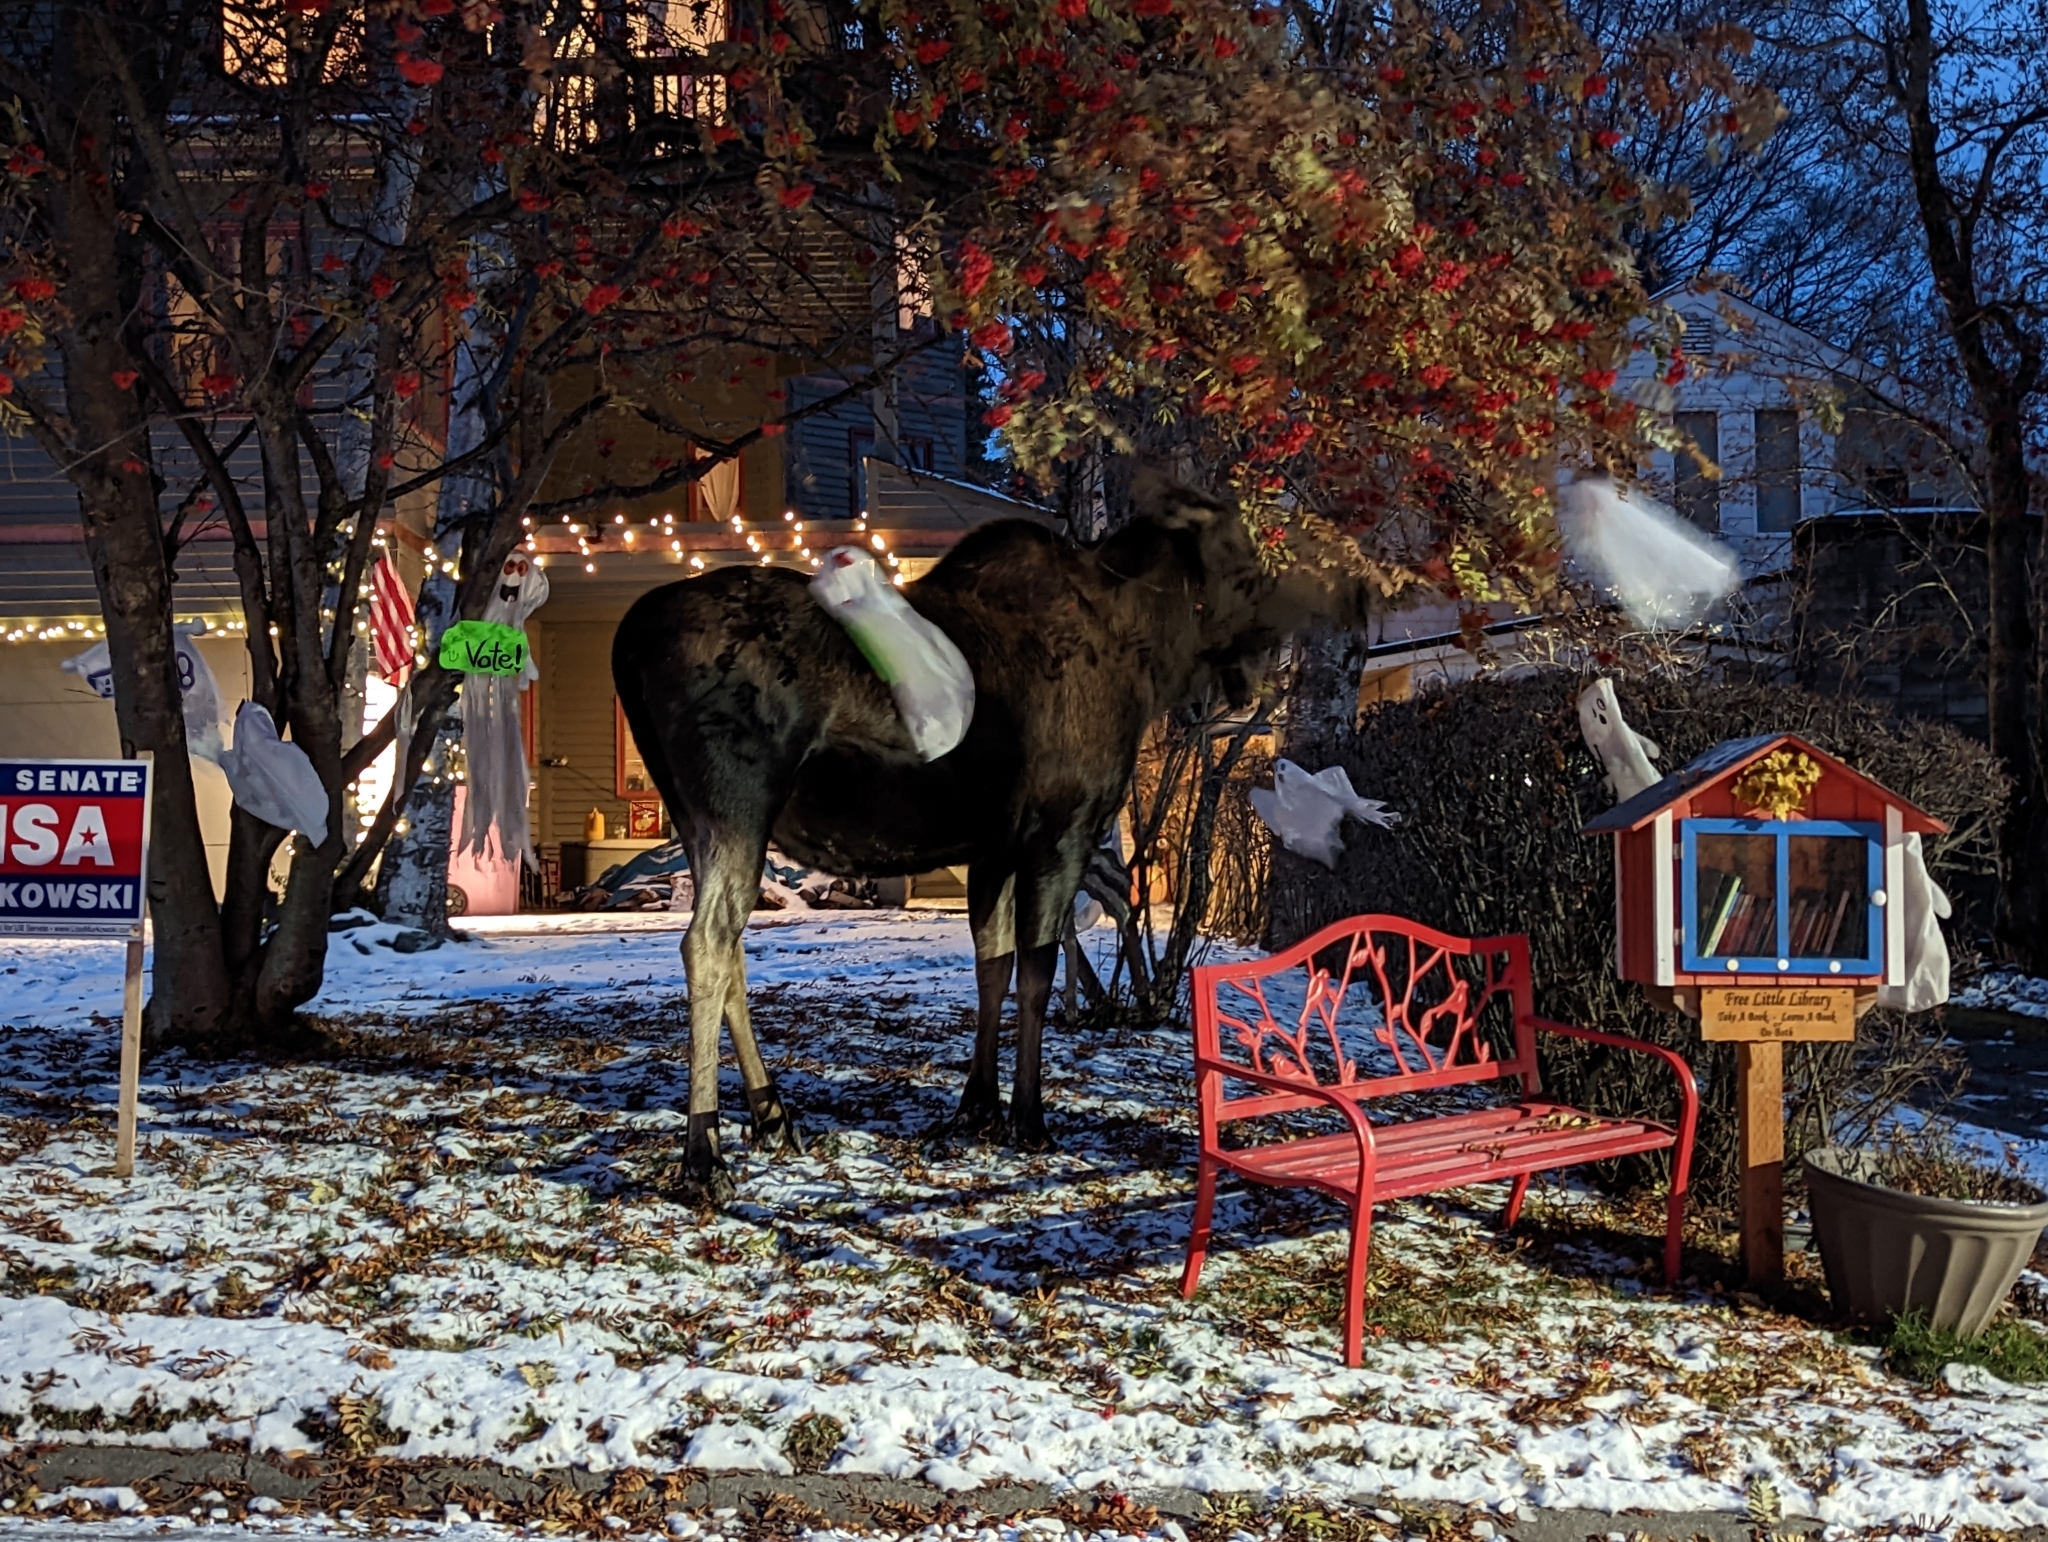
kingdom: Animalia
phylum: Chordata
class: Mammalia
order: Artiodactyla
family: Cervidae
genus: Alces
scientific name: Alces americanus
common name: Moose
